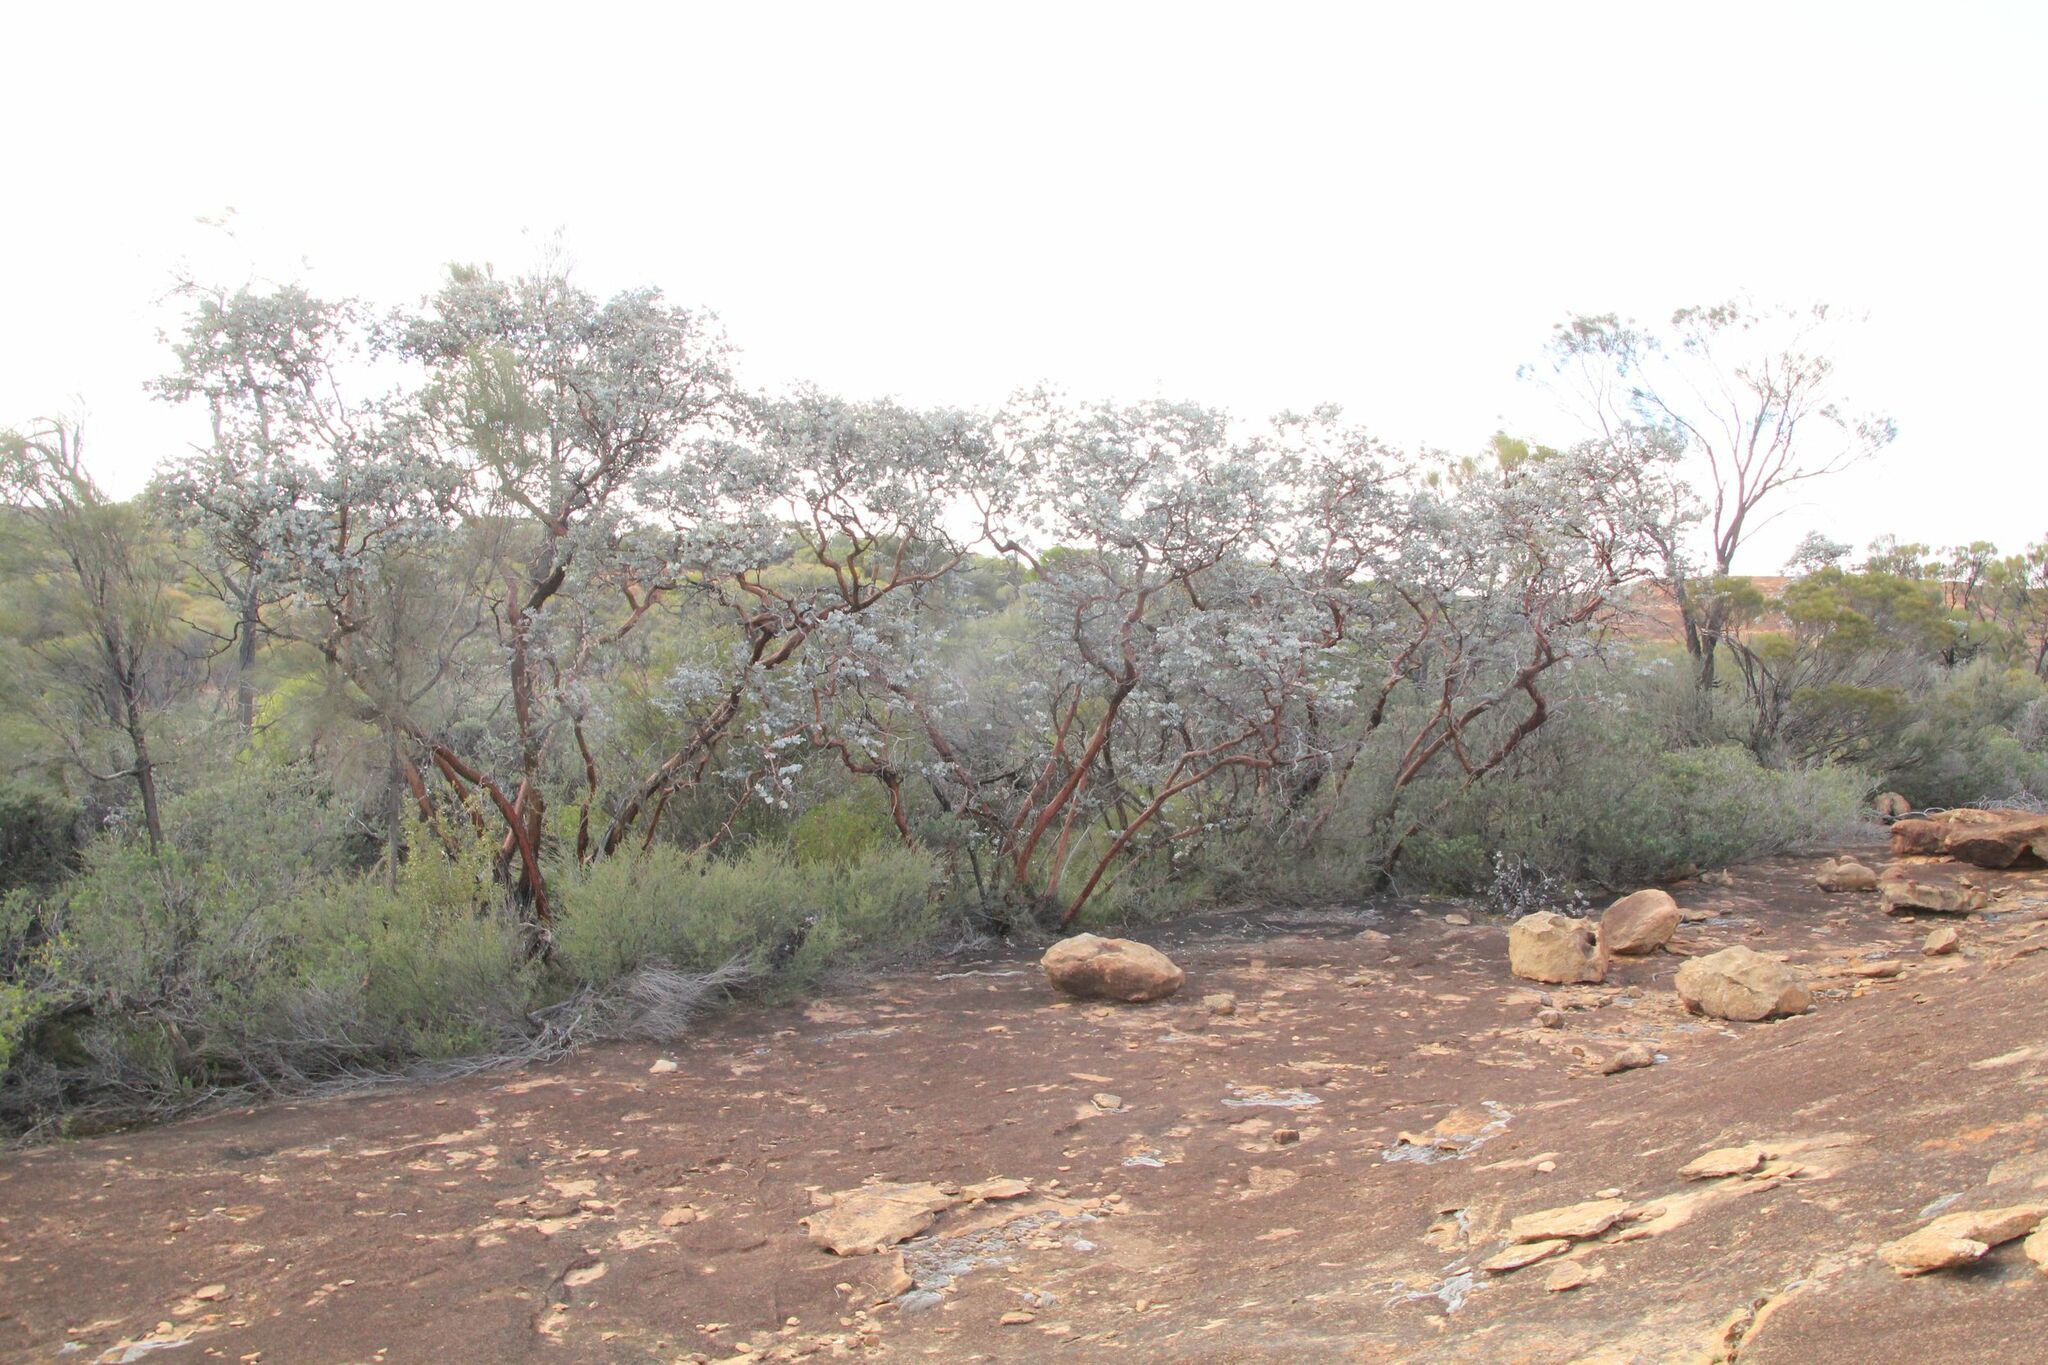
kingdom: Plantae
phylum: Tracheophyta
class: Magnoliopsida
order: Myrtales
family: Myrtaceae
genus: Eucalyptus
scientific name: Eucalyptus crucis
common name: Southern cross silver mallee
